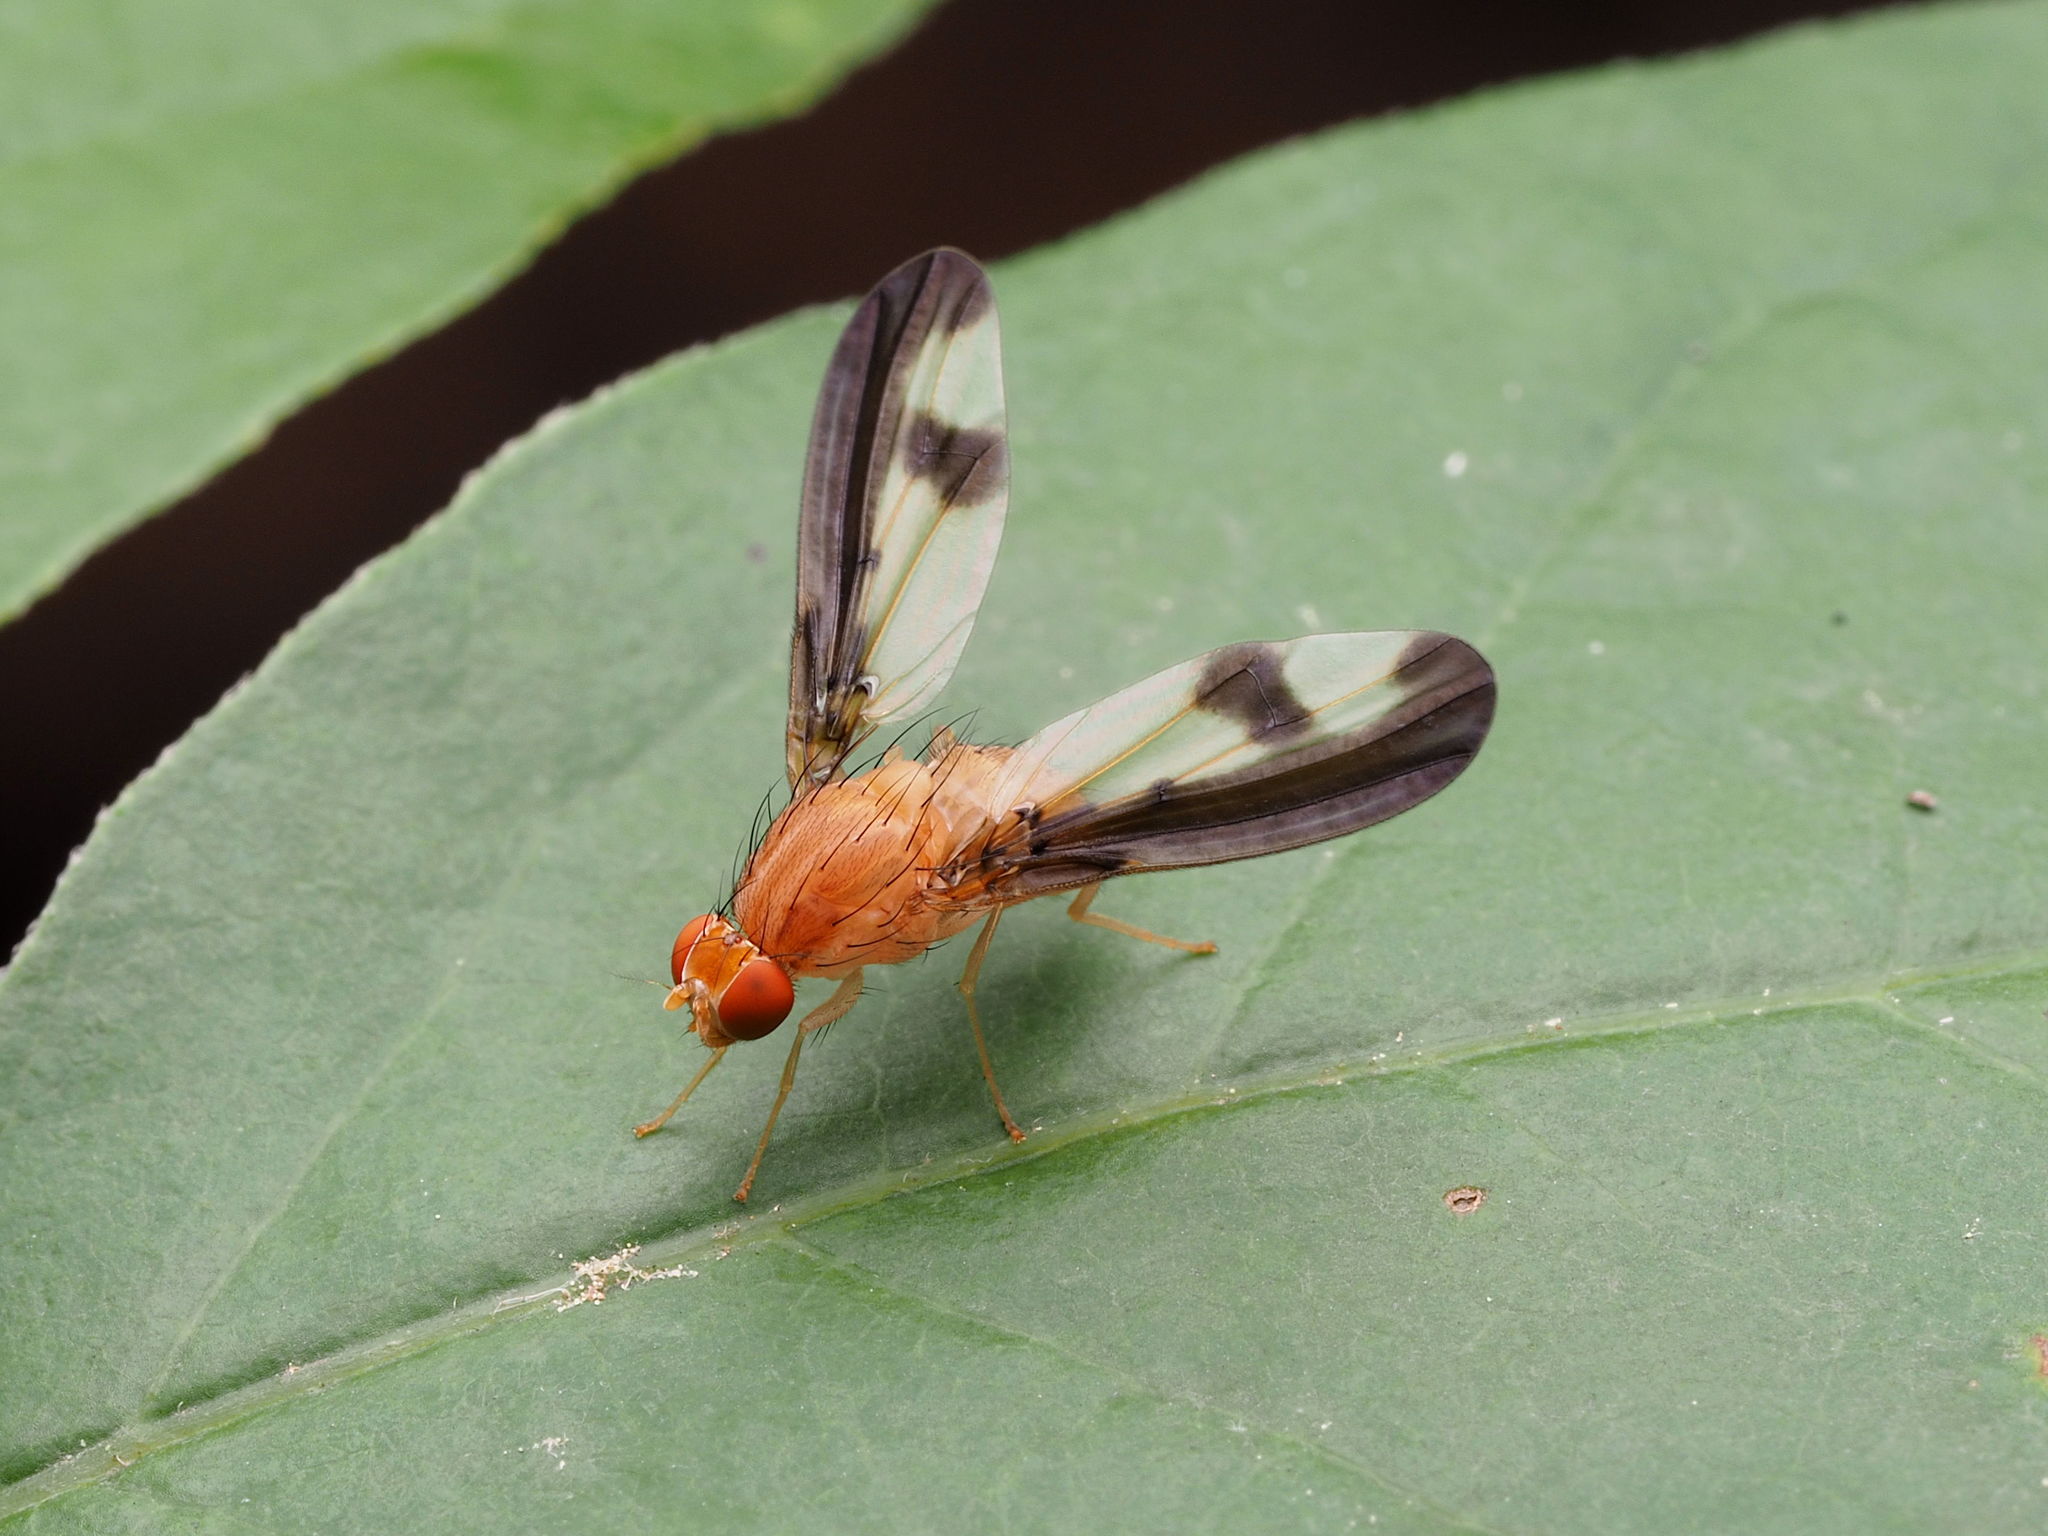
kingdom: Animalia
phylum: Arthropoda
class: Insecta
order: Diptera
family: Pallopteridae
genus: Toxonevra
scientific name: Toxonevra superba
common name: Antlered flutter fly
